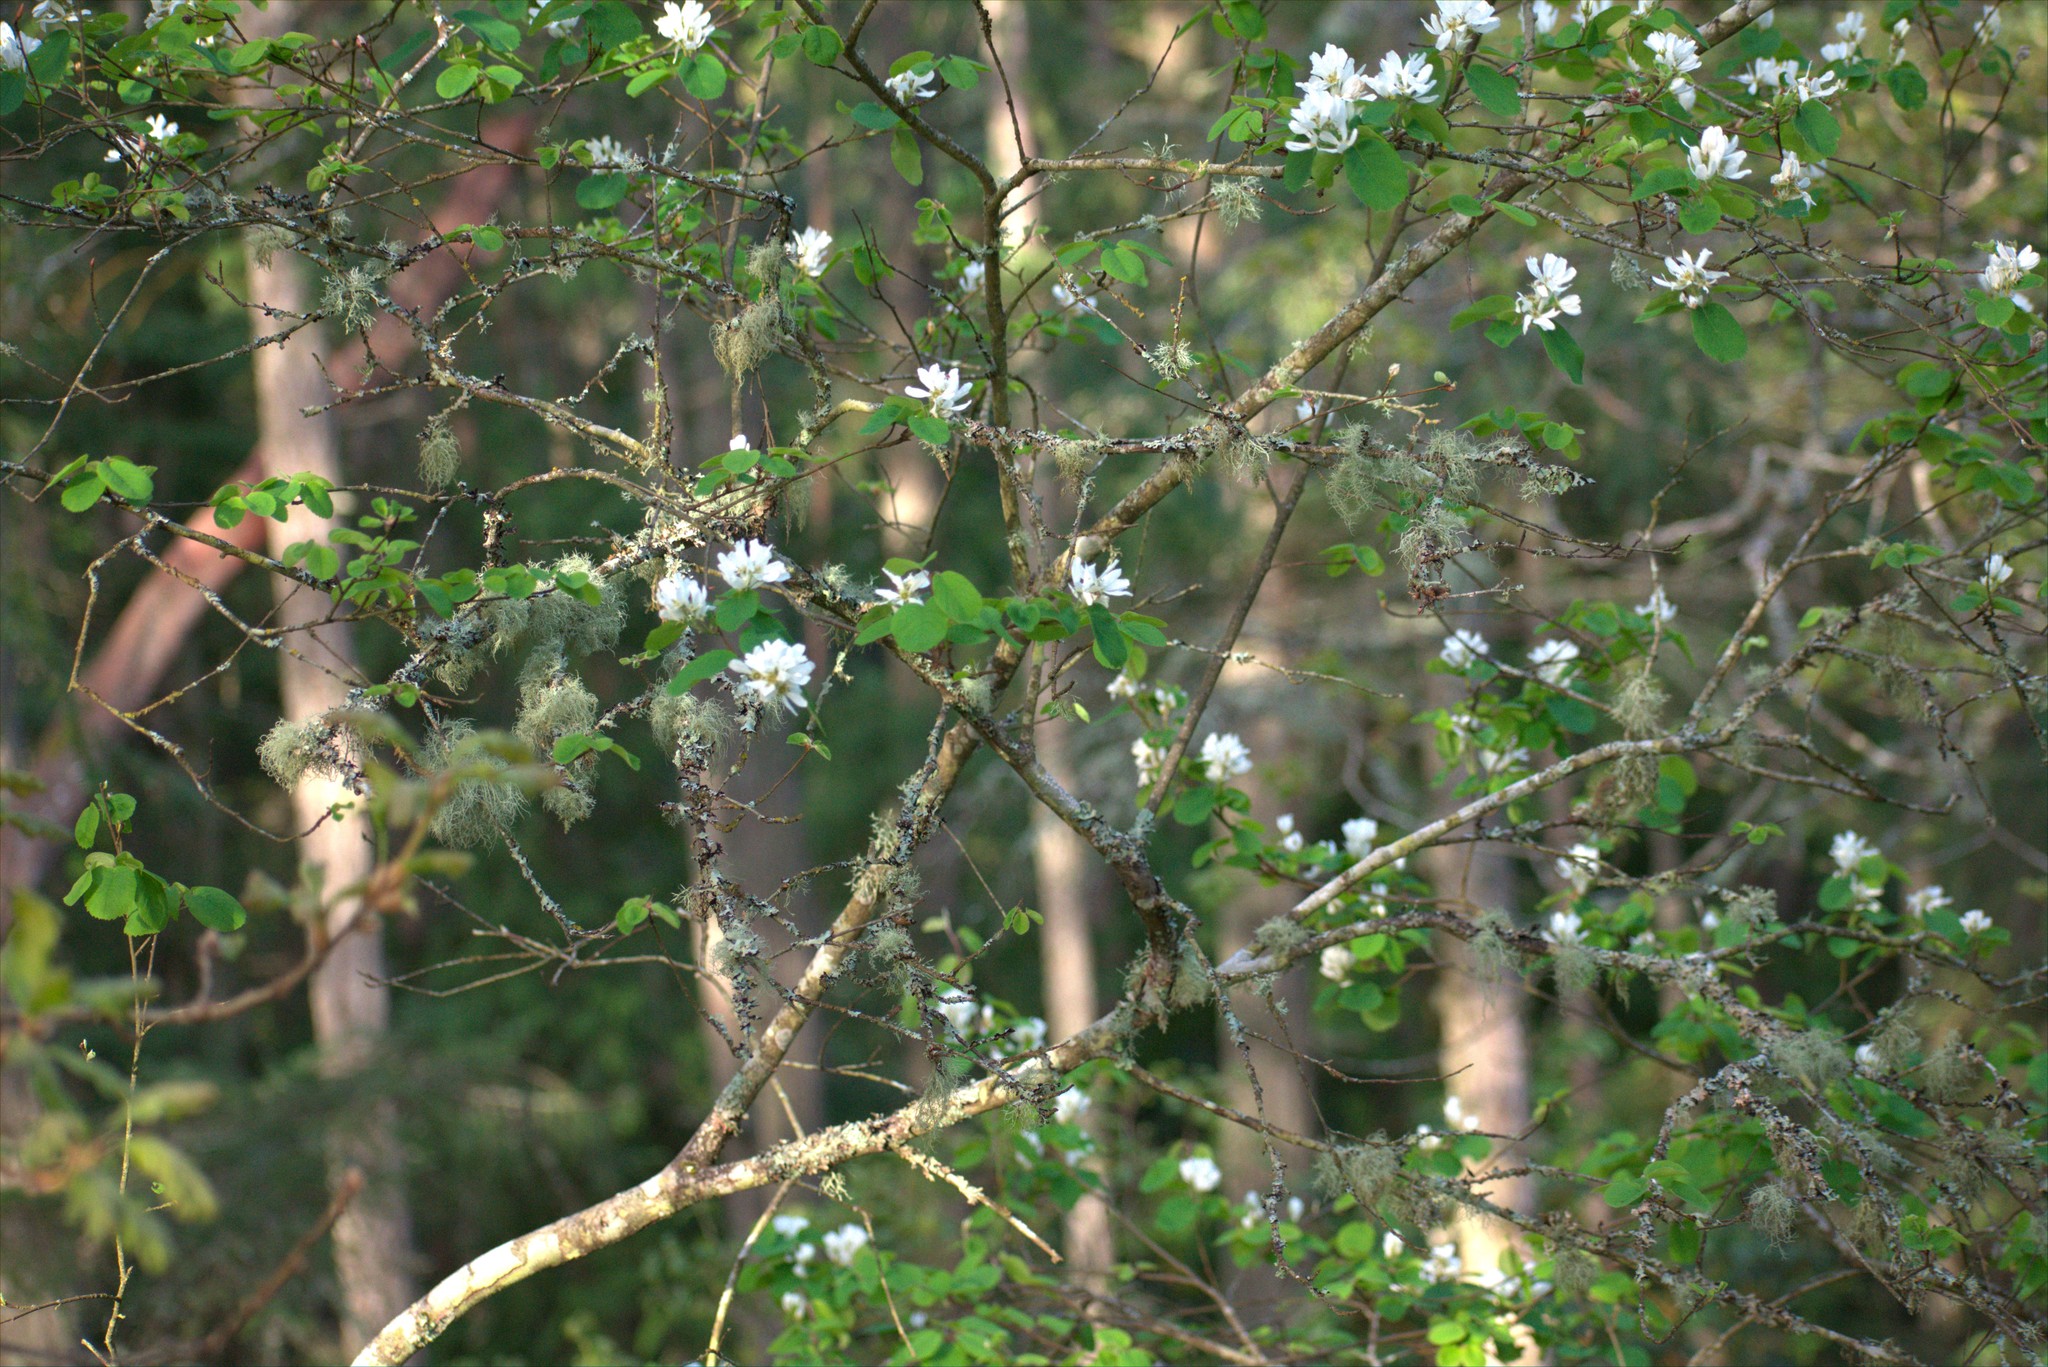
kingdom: Plantae
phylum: Tracheophyta
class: Magnoliopsida
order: Rosales
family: Rosaceae
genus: Amelanchier
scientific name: Amelanchier alnifolia
